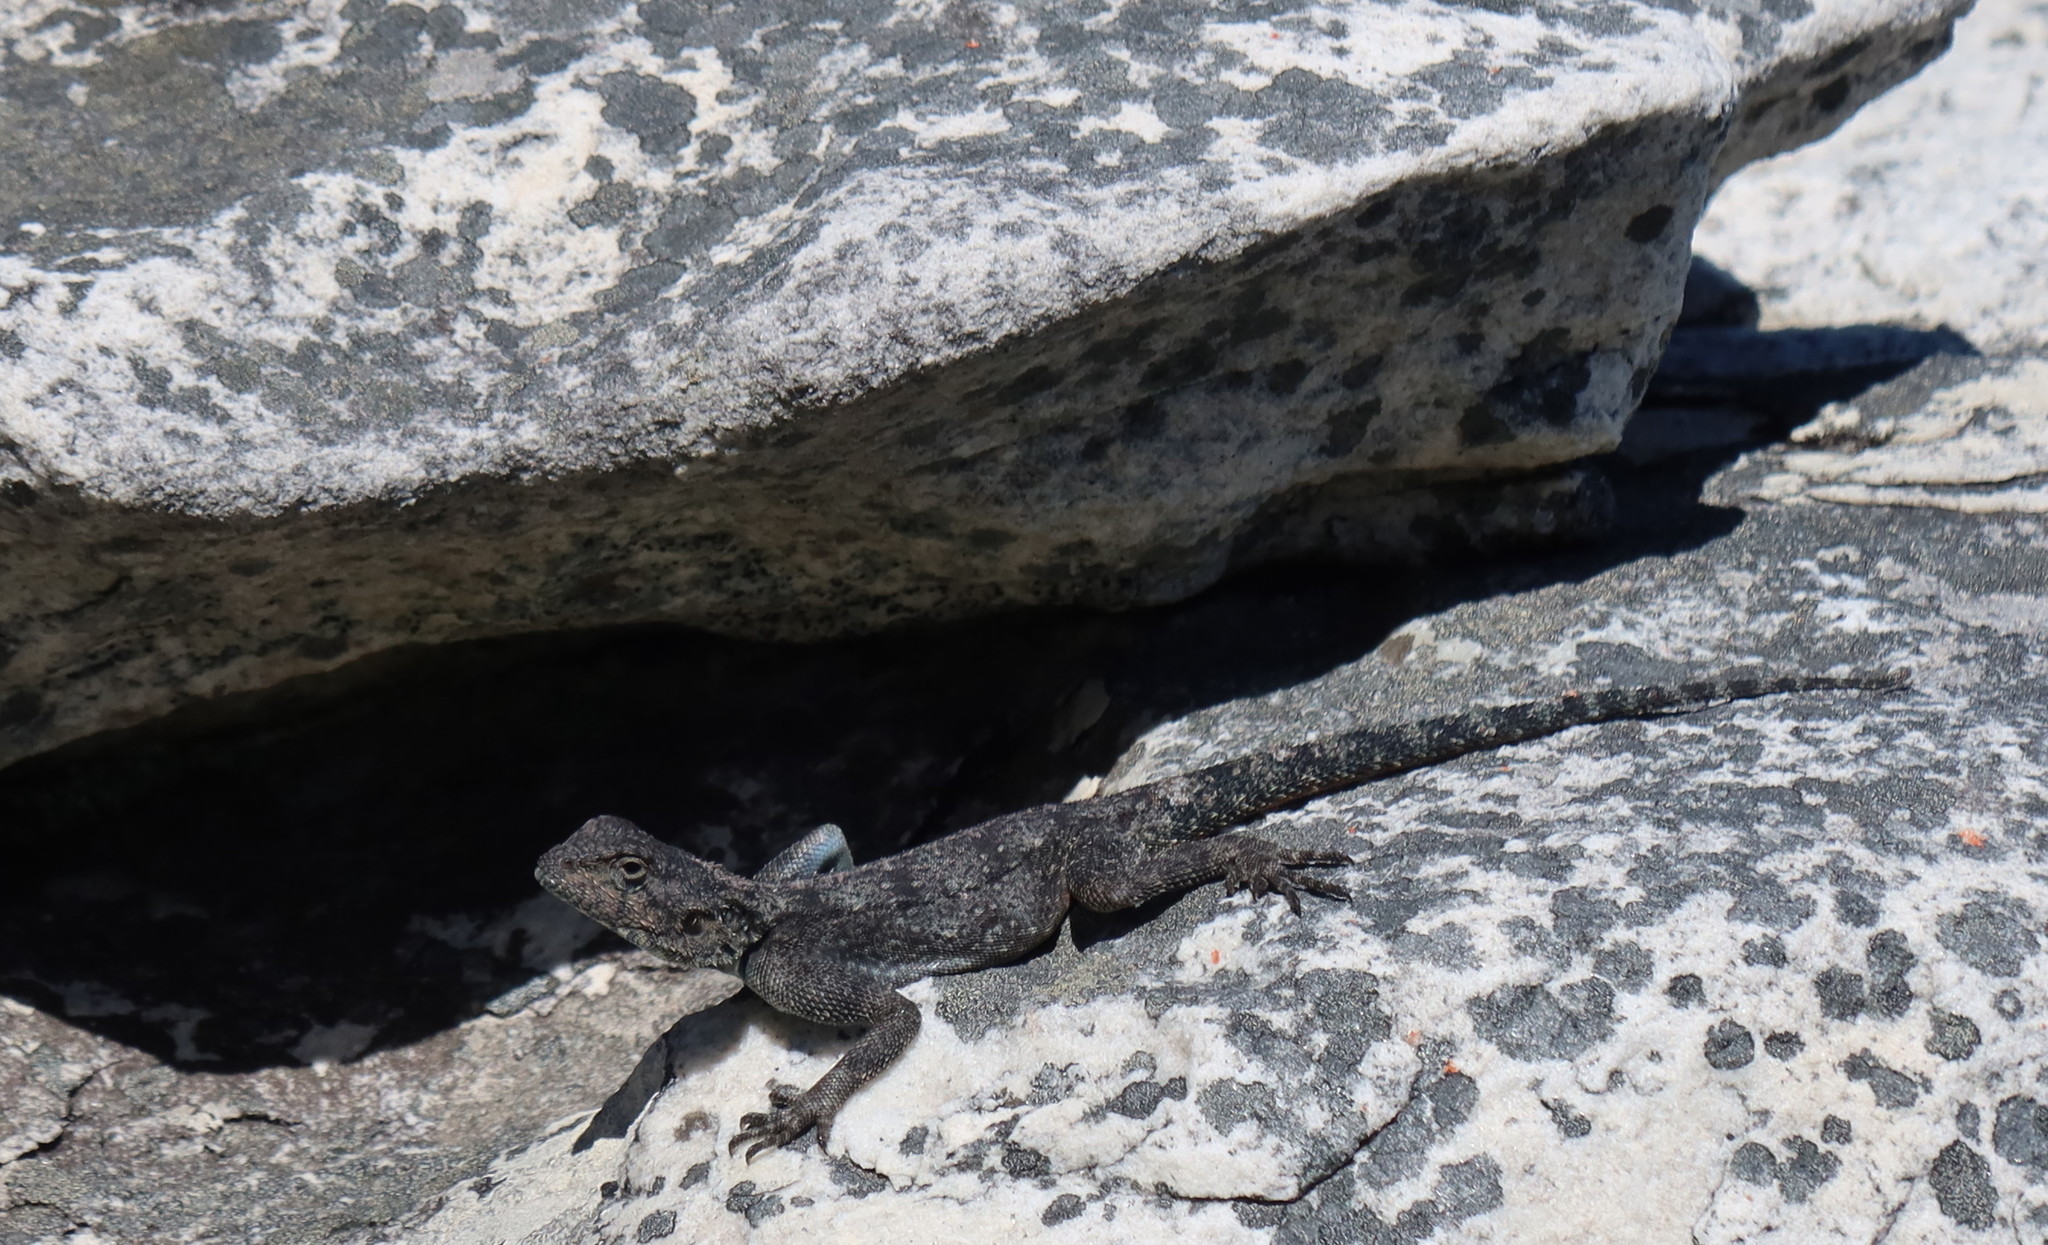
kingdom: Animalia
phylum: Chordata
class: Squamata
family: Agamidae
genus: Agama
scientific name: Agama atra
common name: Southern african rock agama
